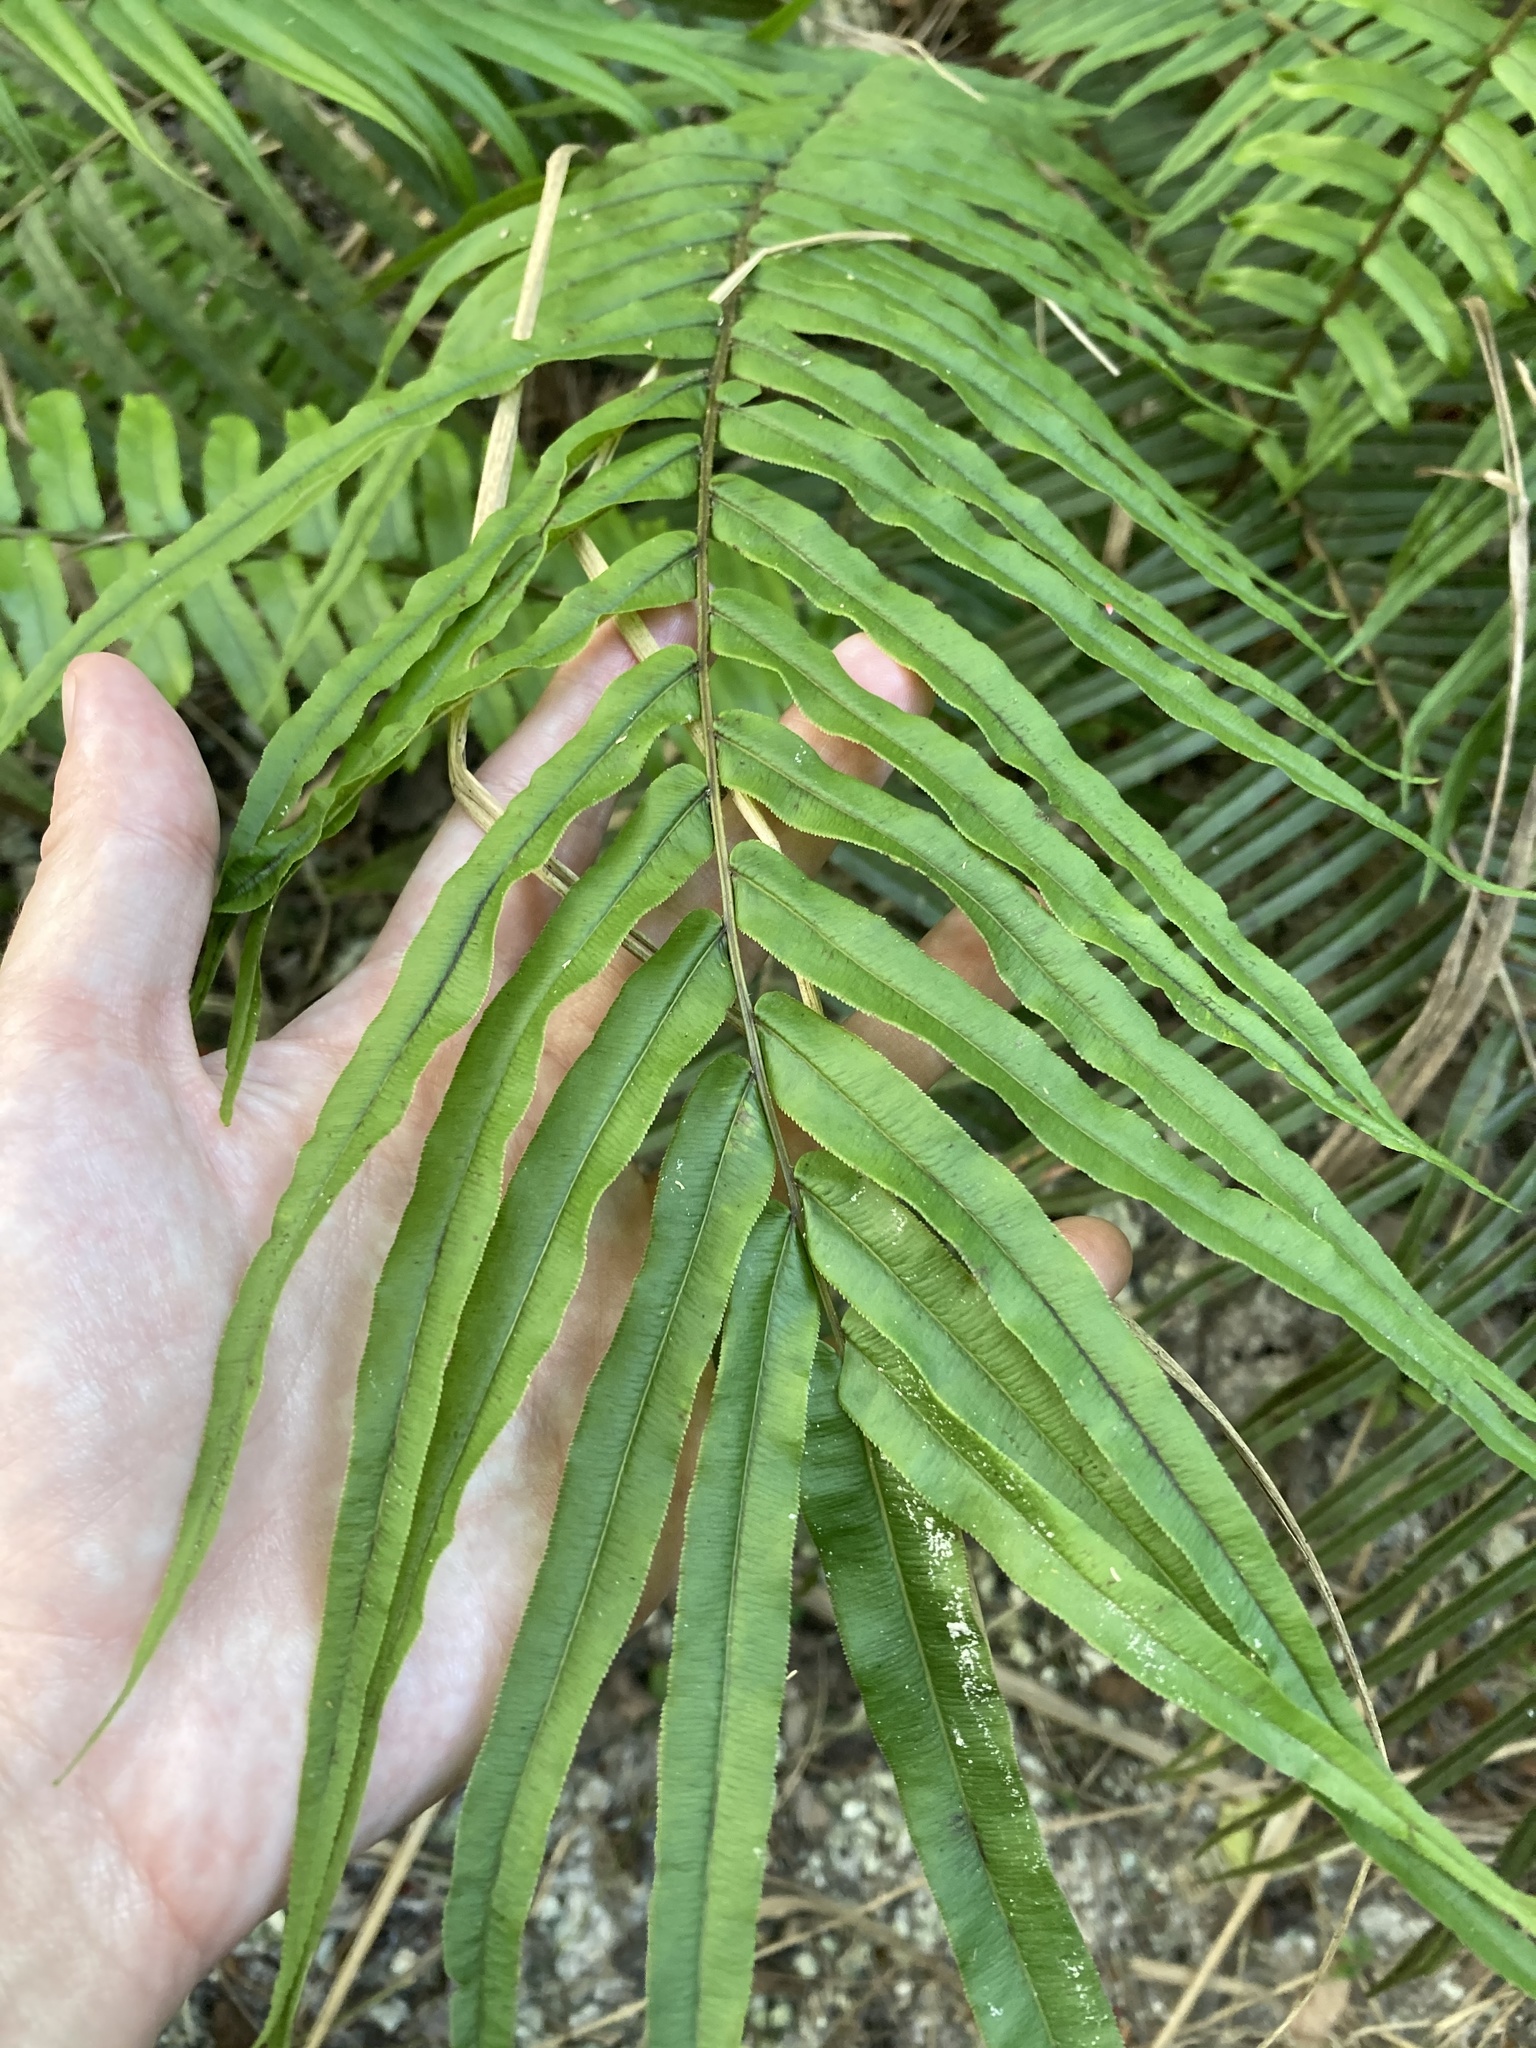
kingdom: Plantae
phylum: Tracheophyta
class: Polypodiopsida
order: Polypodiales
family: Pteridaceae
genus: Pteris
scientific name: Pteris vittata
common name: Ladder brake
